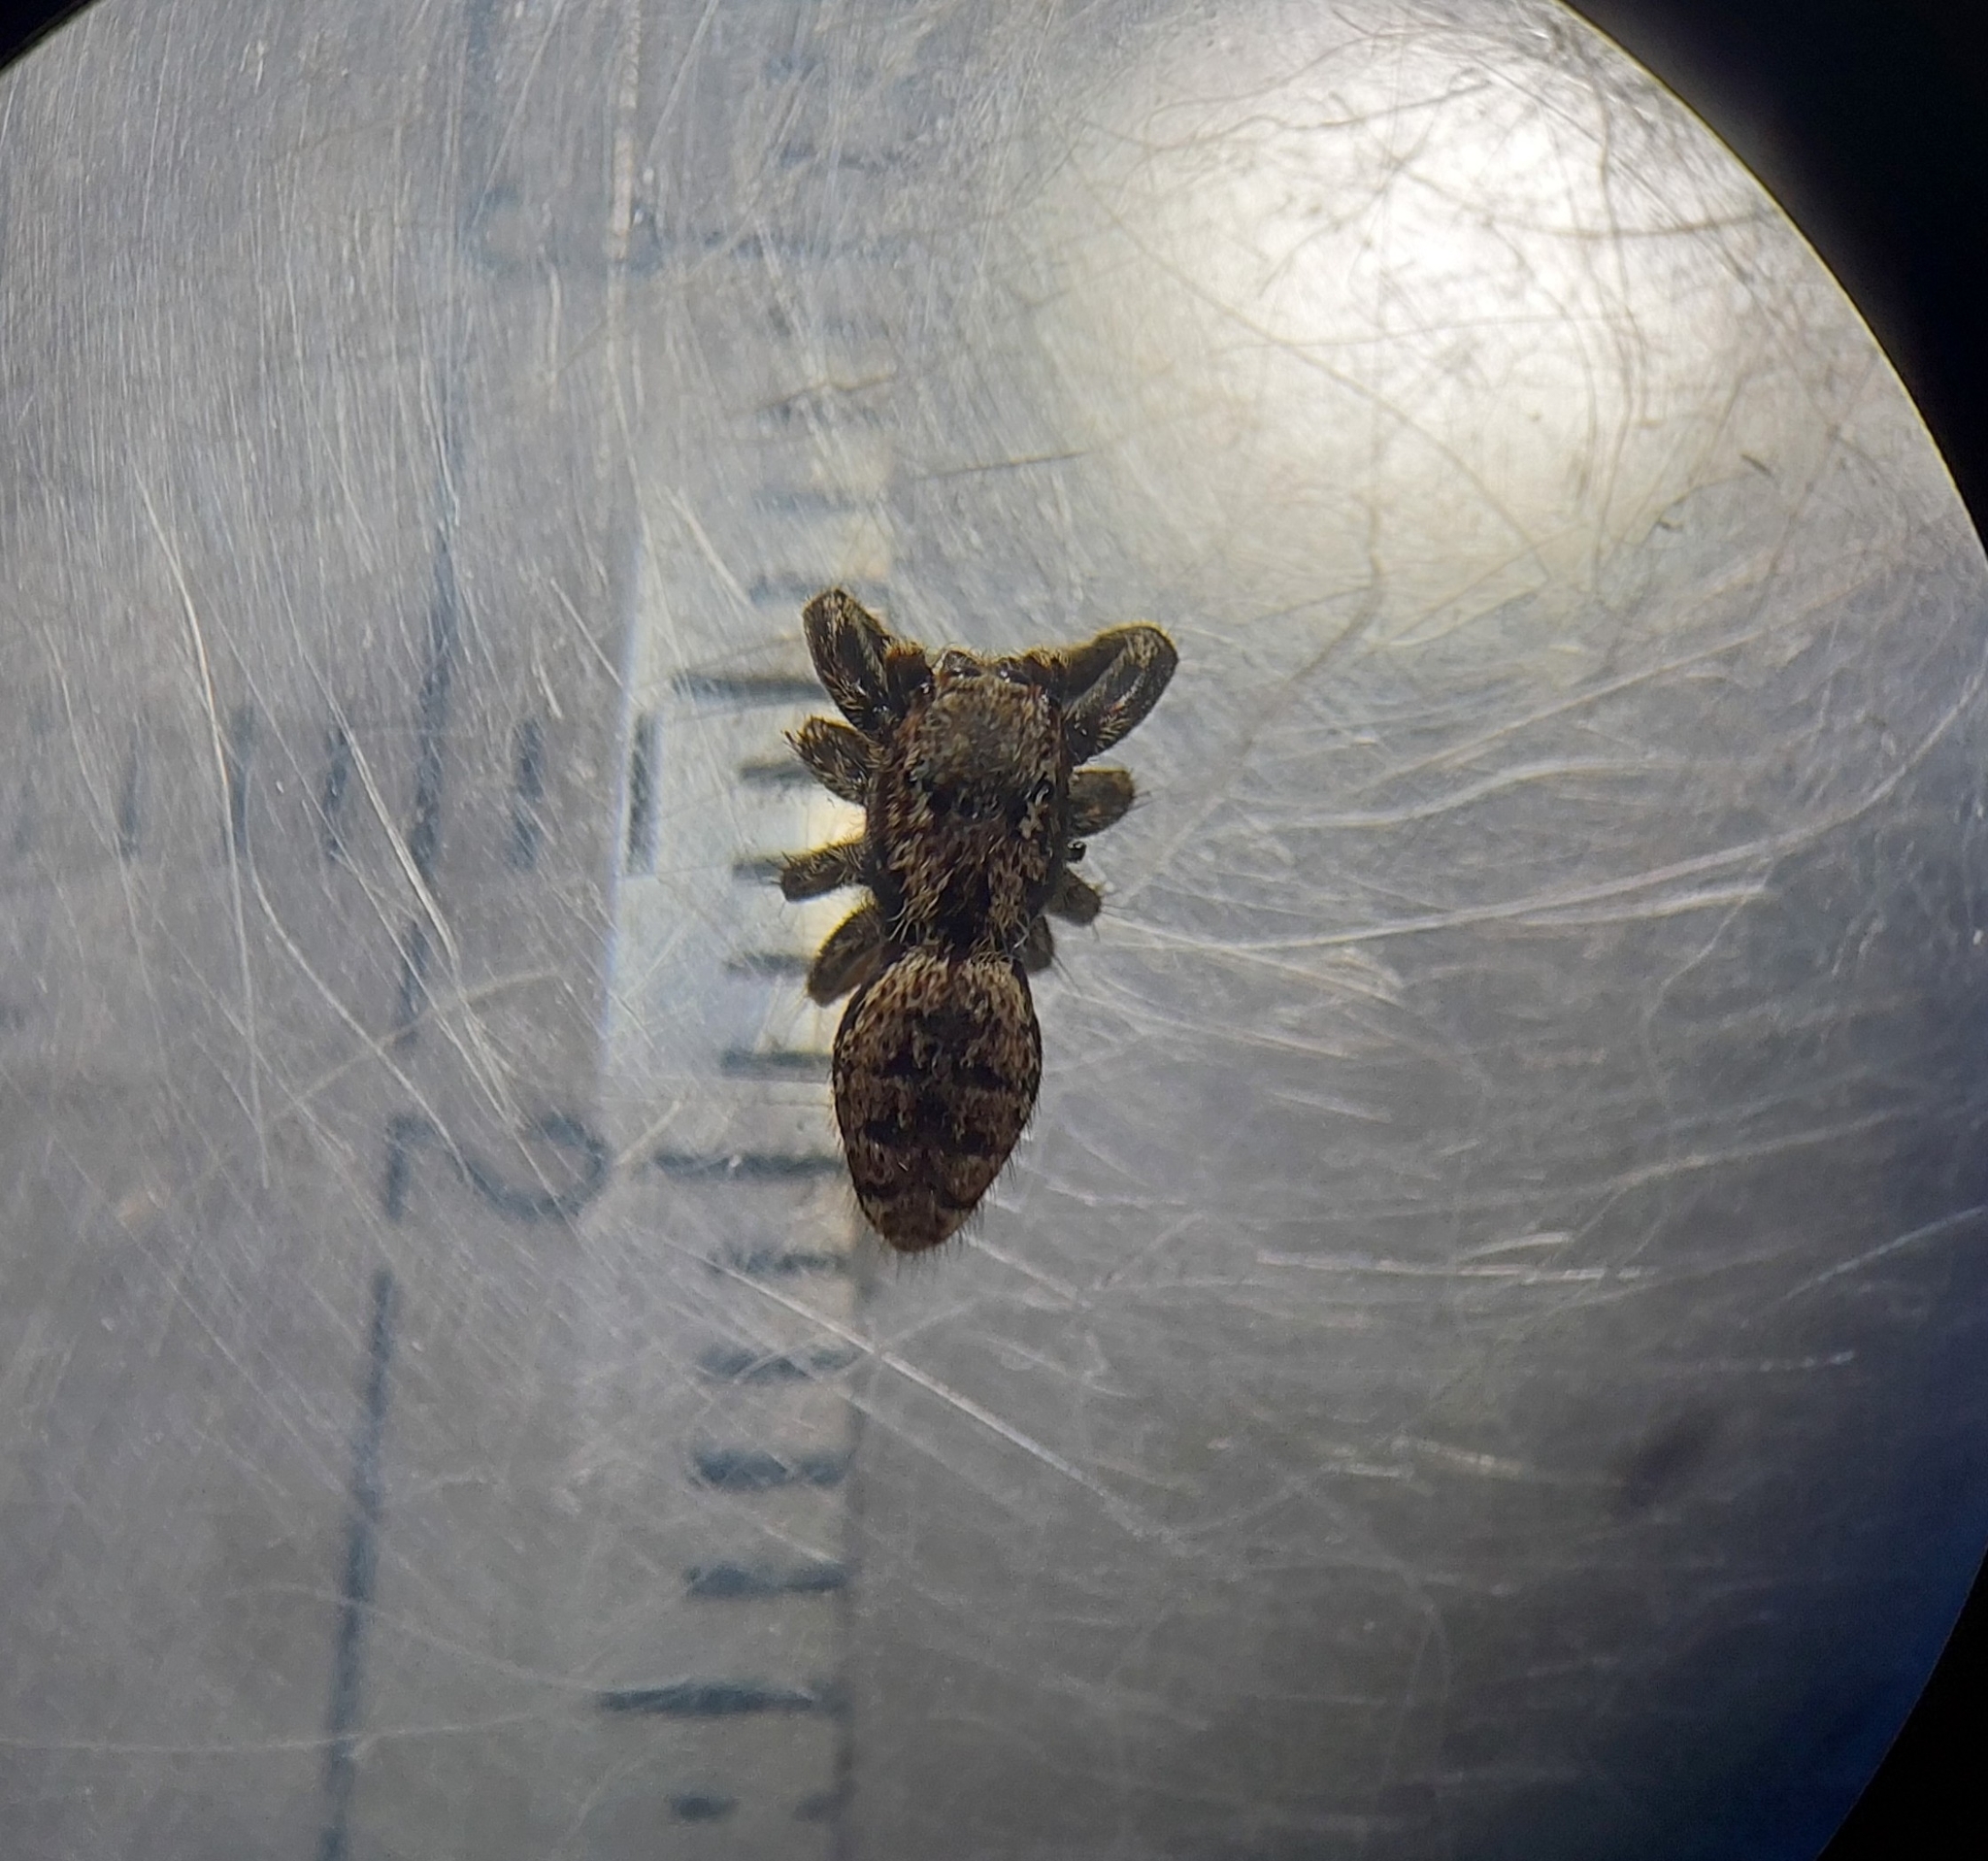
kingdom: Animalia
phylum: Arthropoda
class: Arachnida
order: Araneae
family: Salticidae
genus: Marpissa
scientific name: Marpissa muscosa
